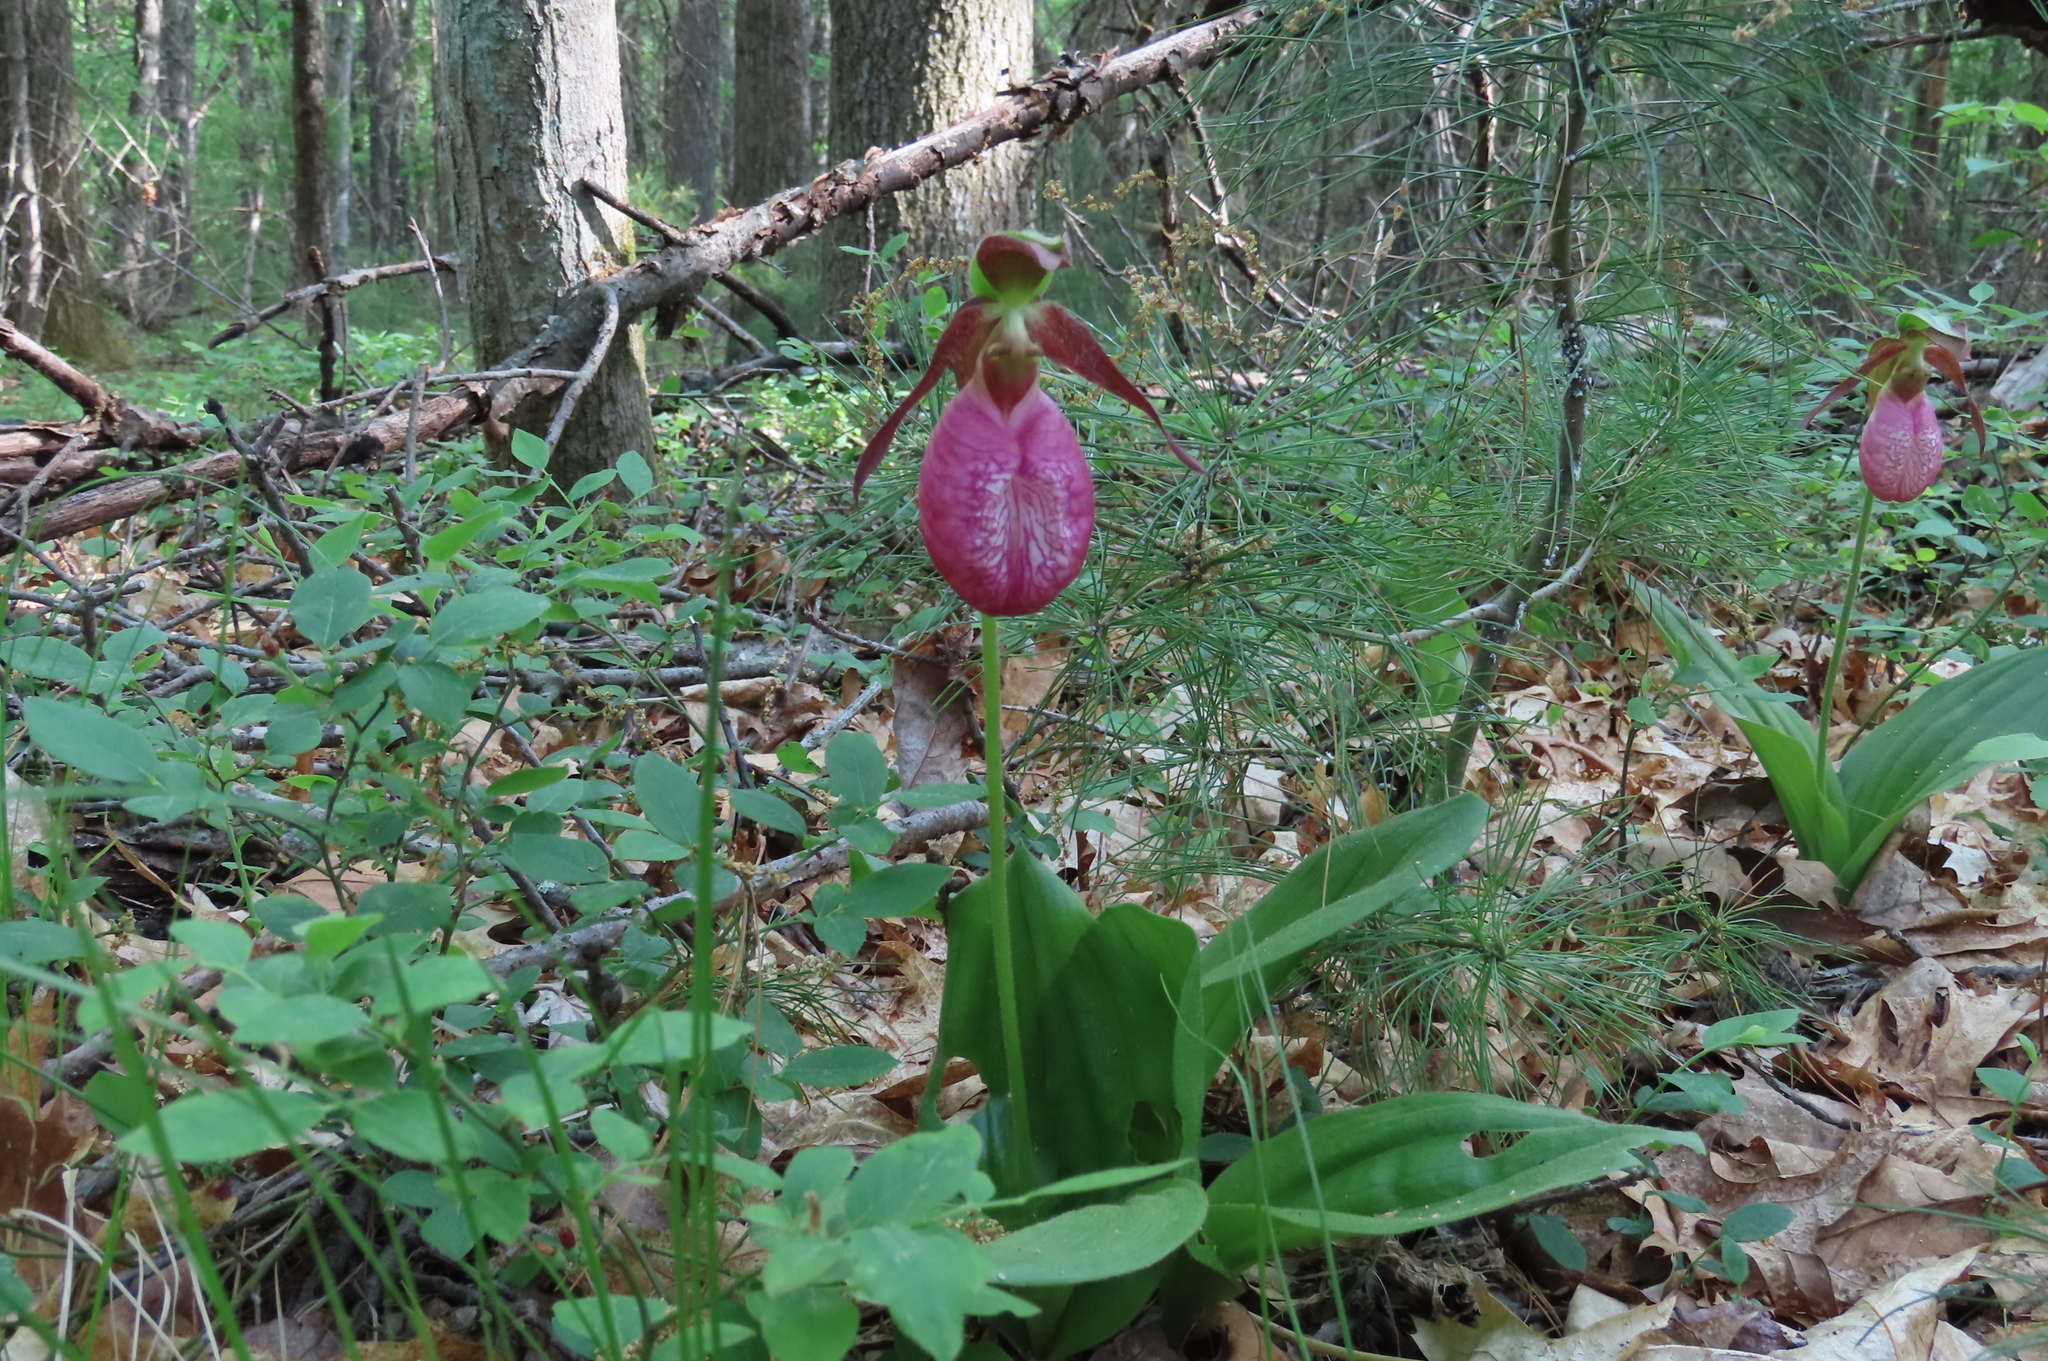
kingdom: Plantae
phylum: Tracheophyta
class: Liliopsida
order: Asparagales
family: Orchidaceae
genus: Cypripedium
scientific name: Cypripedium acaule
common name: Pink lady's-slipper
